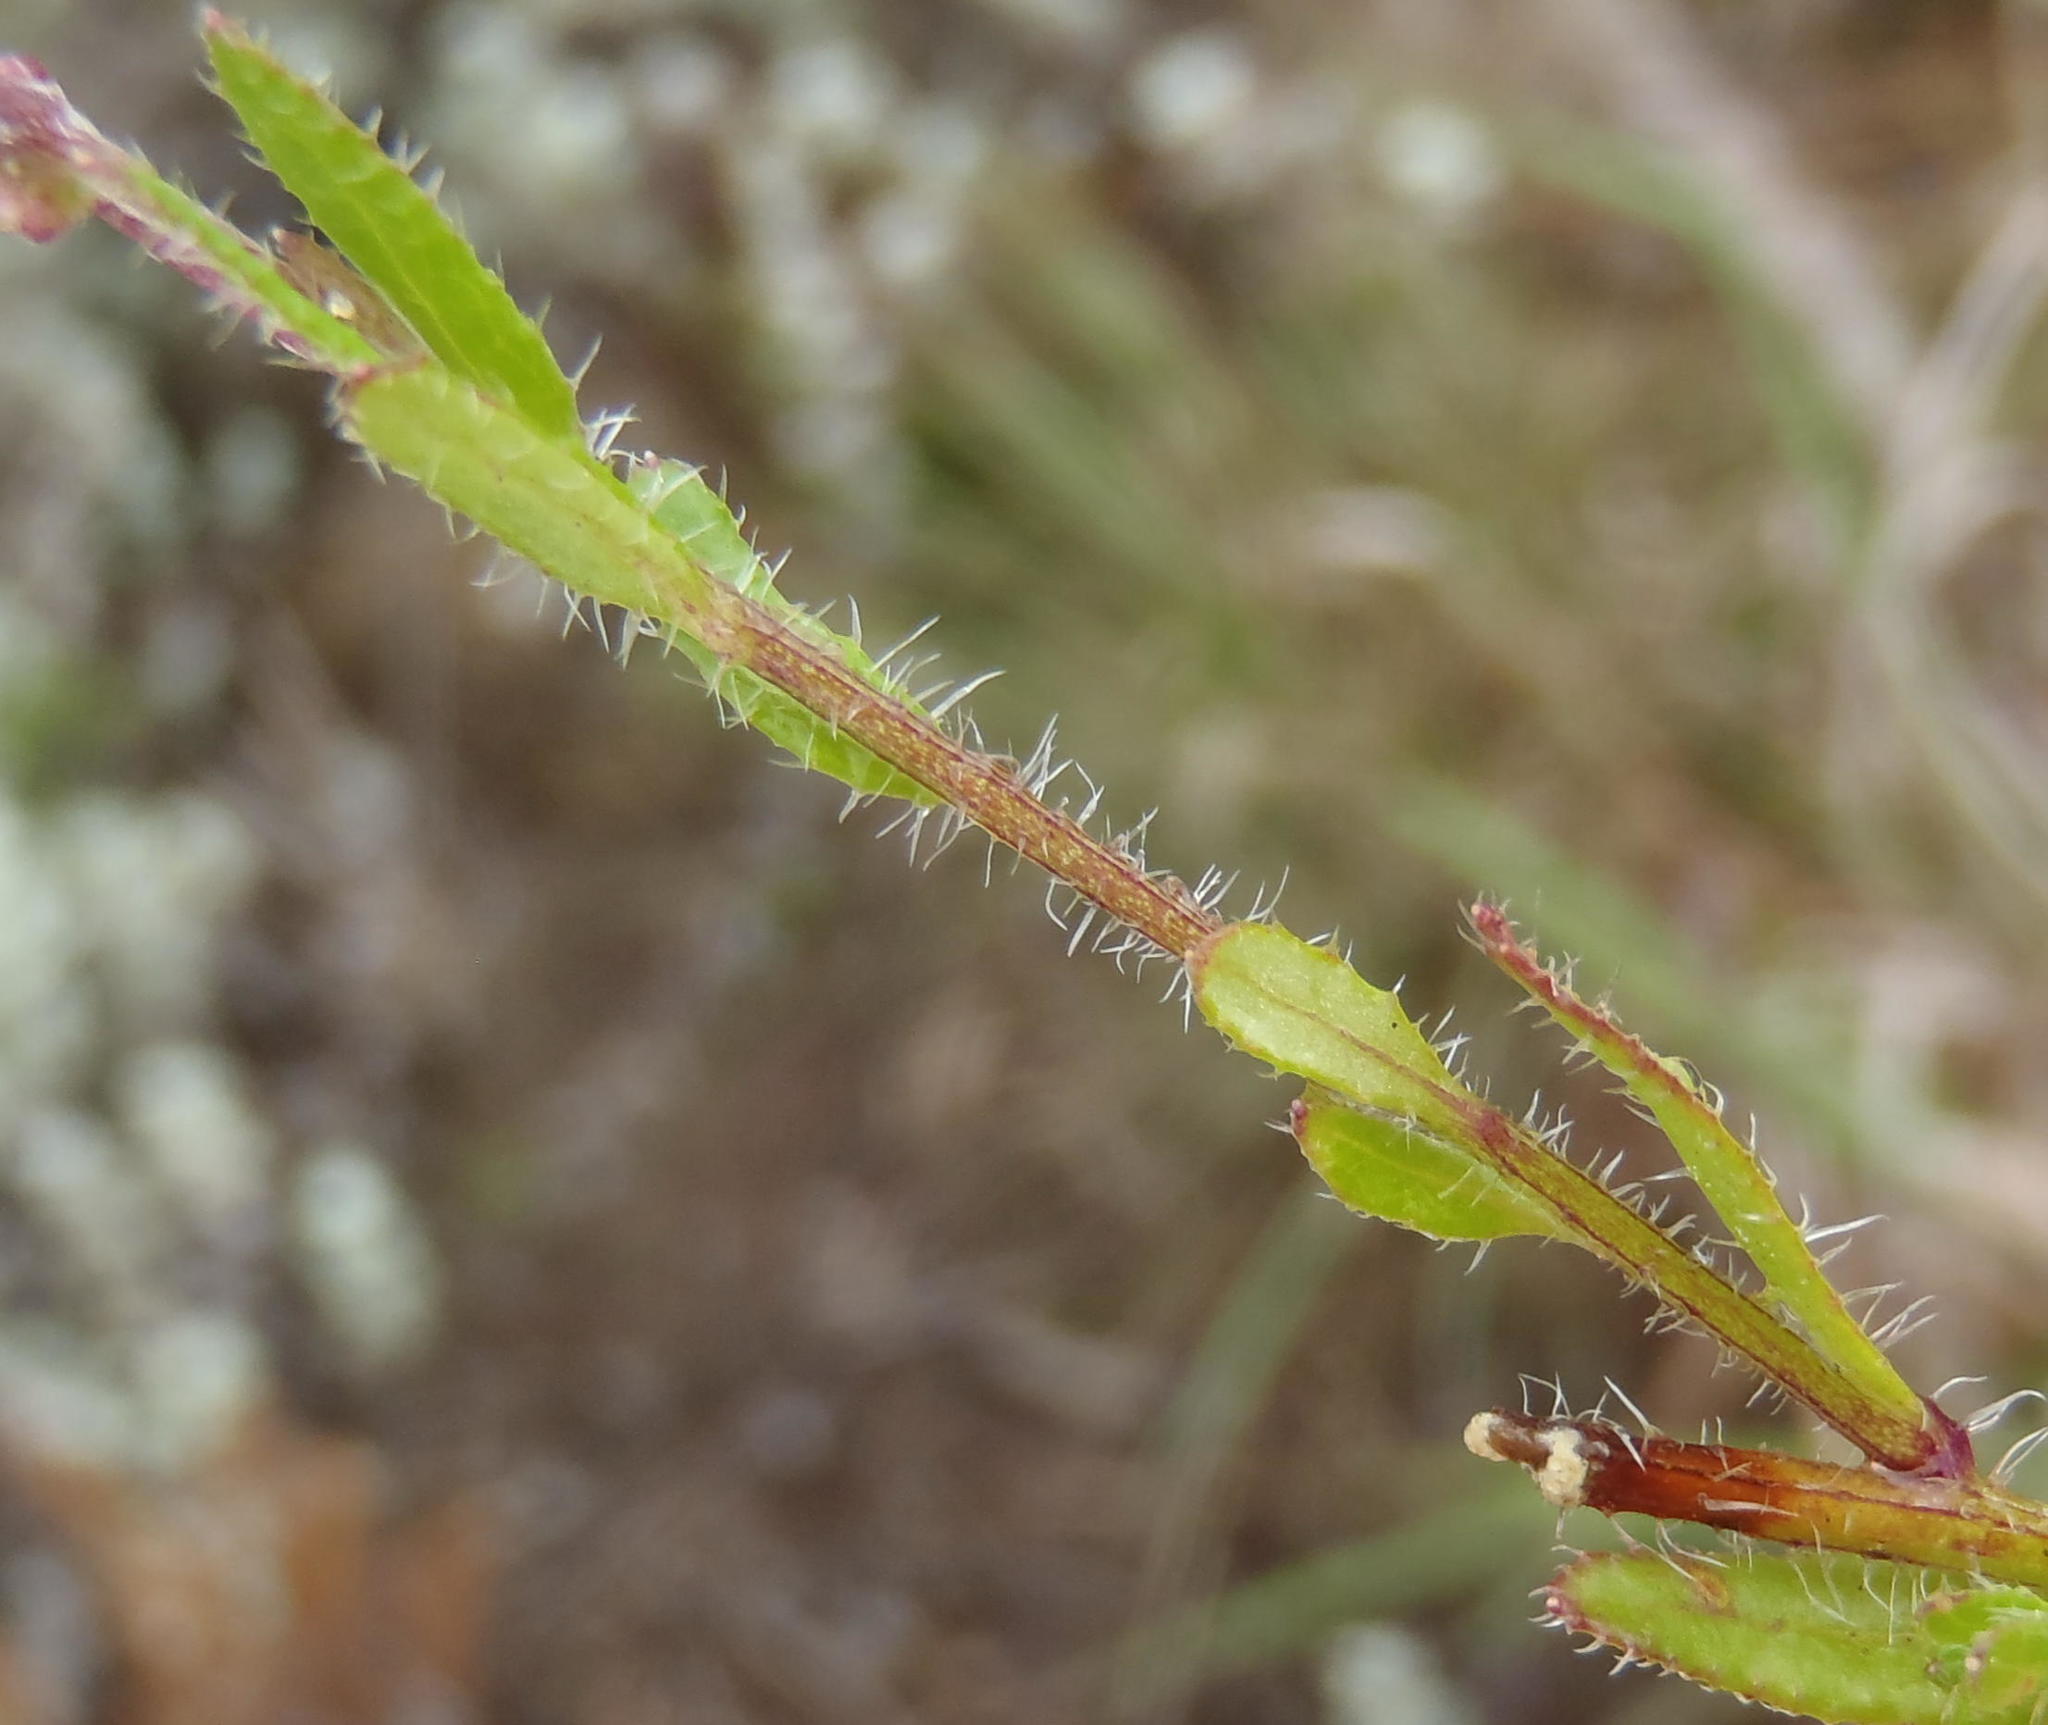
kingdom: Plantae
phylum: Tracheophyta
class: Magnoliopsida
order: Asterales
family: Campanulaceae
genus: Lobelia
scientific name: Lobelia neglecta
